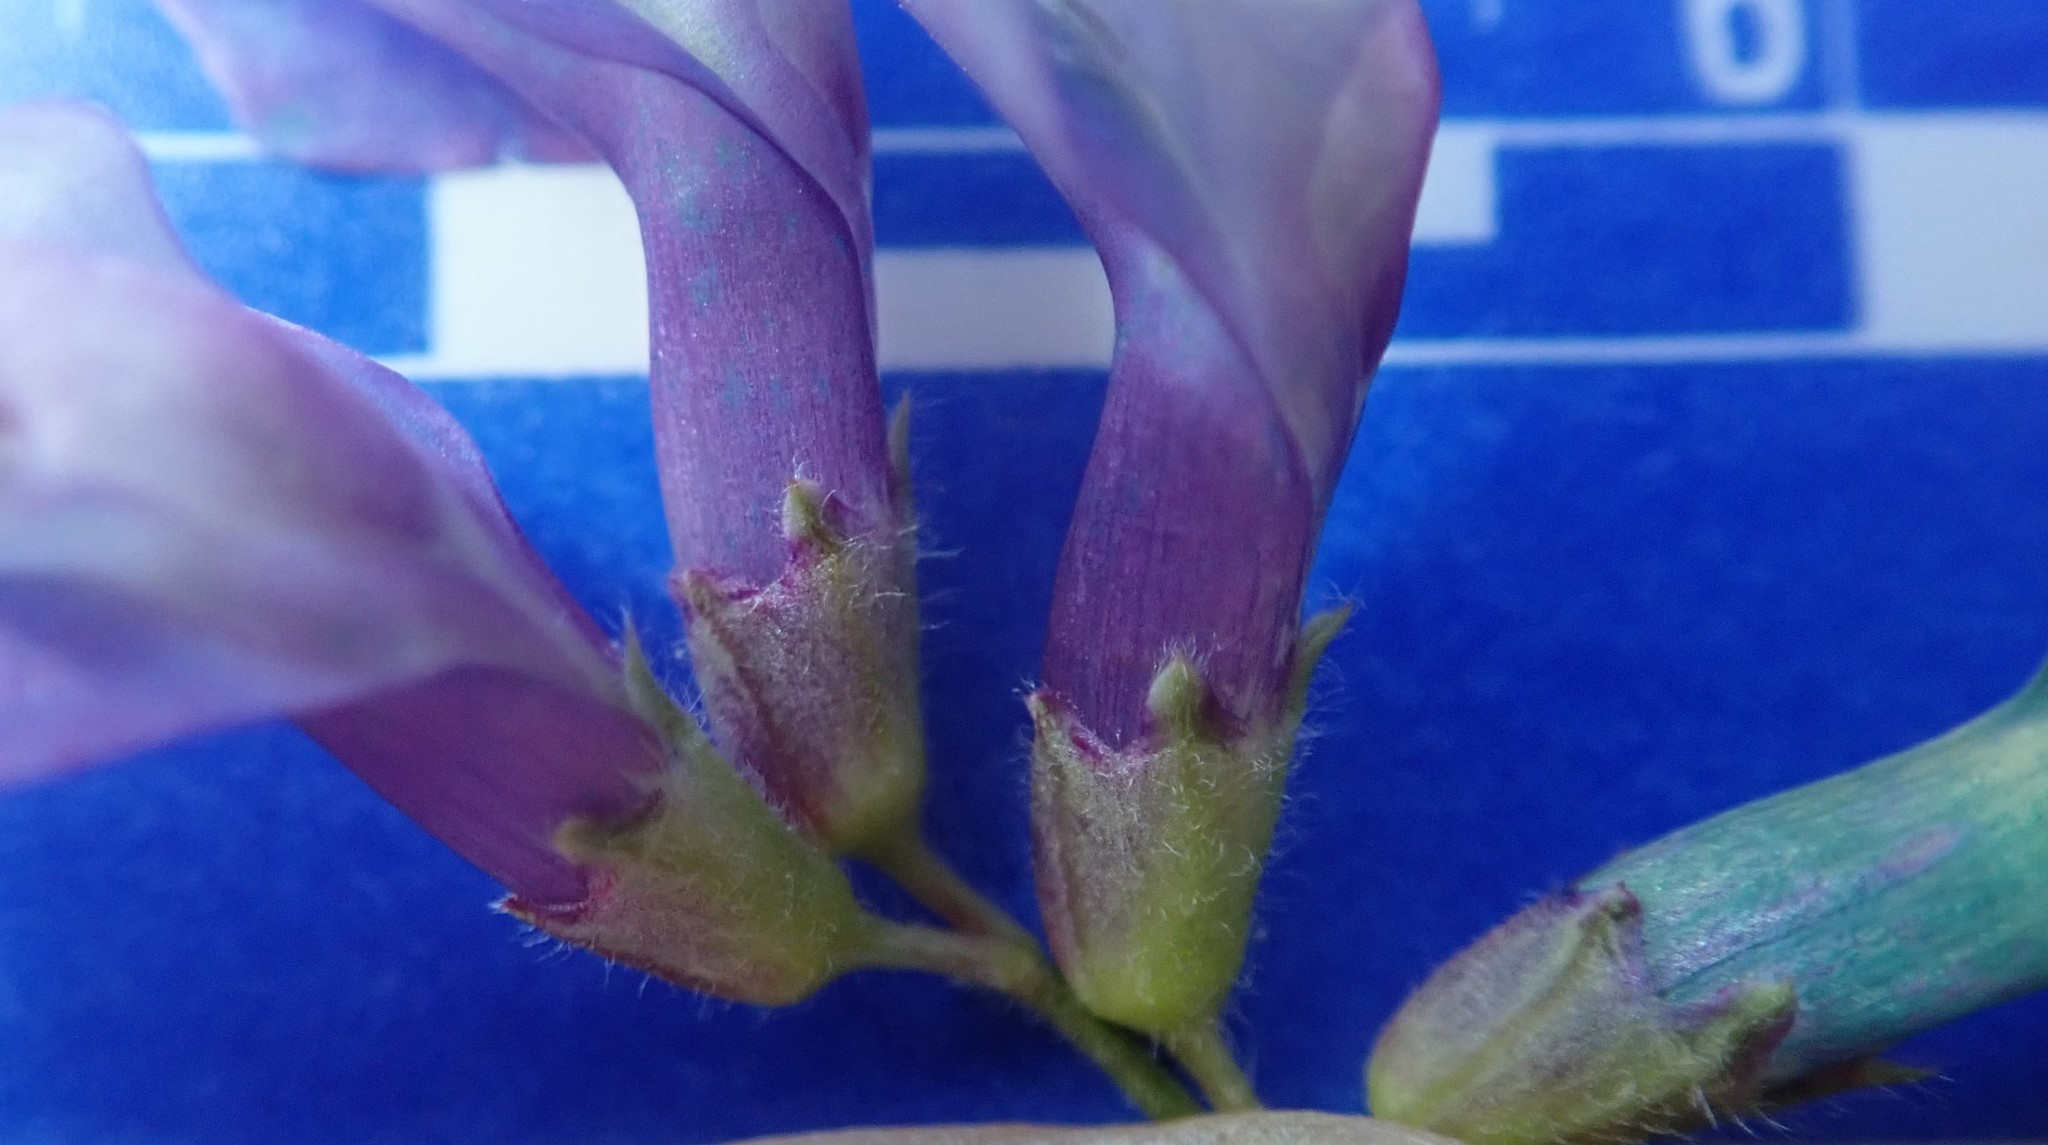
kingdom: Plantae
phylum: Tracheophyta
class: Magnoliopsida
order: Fabales
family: Fabaceae
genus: Vicia
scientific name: Vicia americana
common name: American vetch
